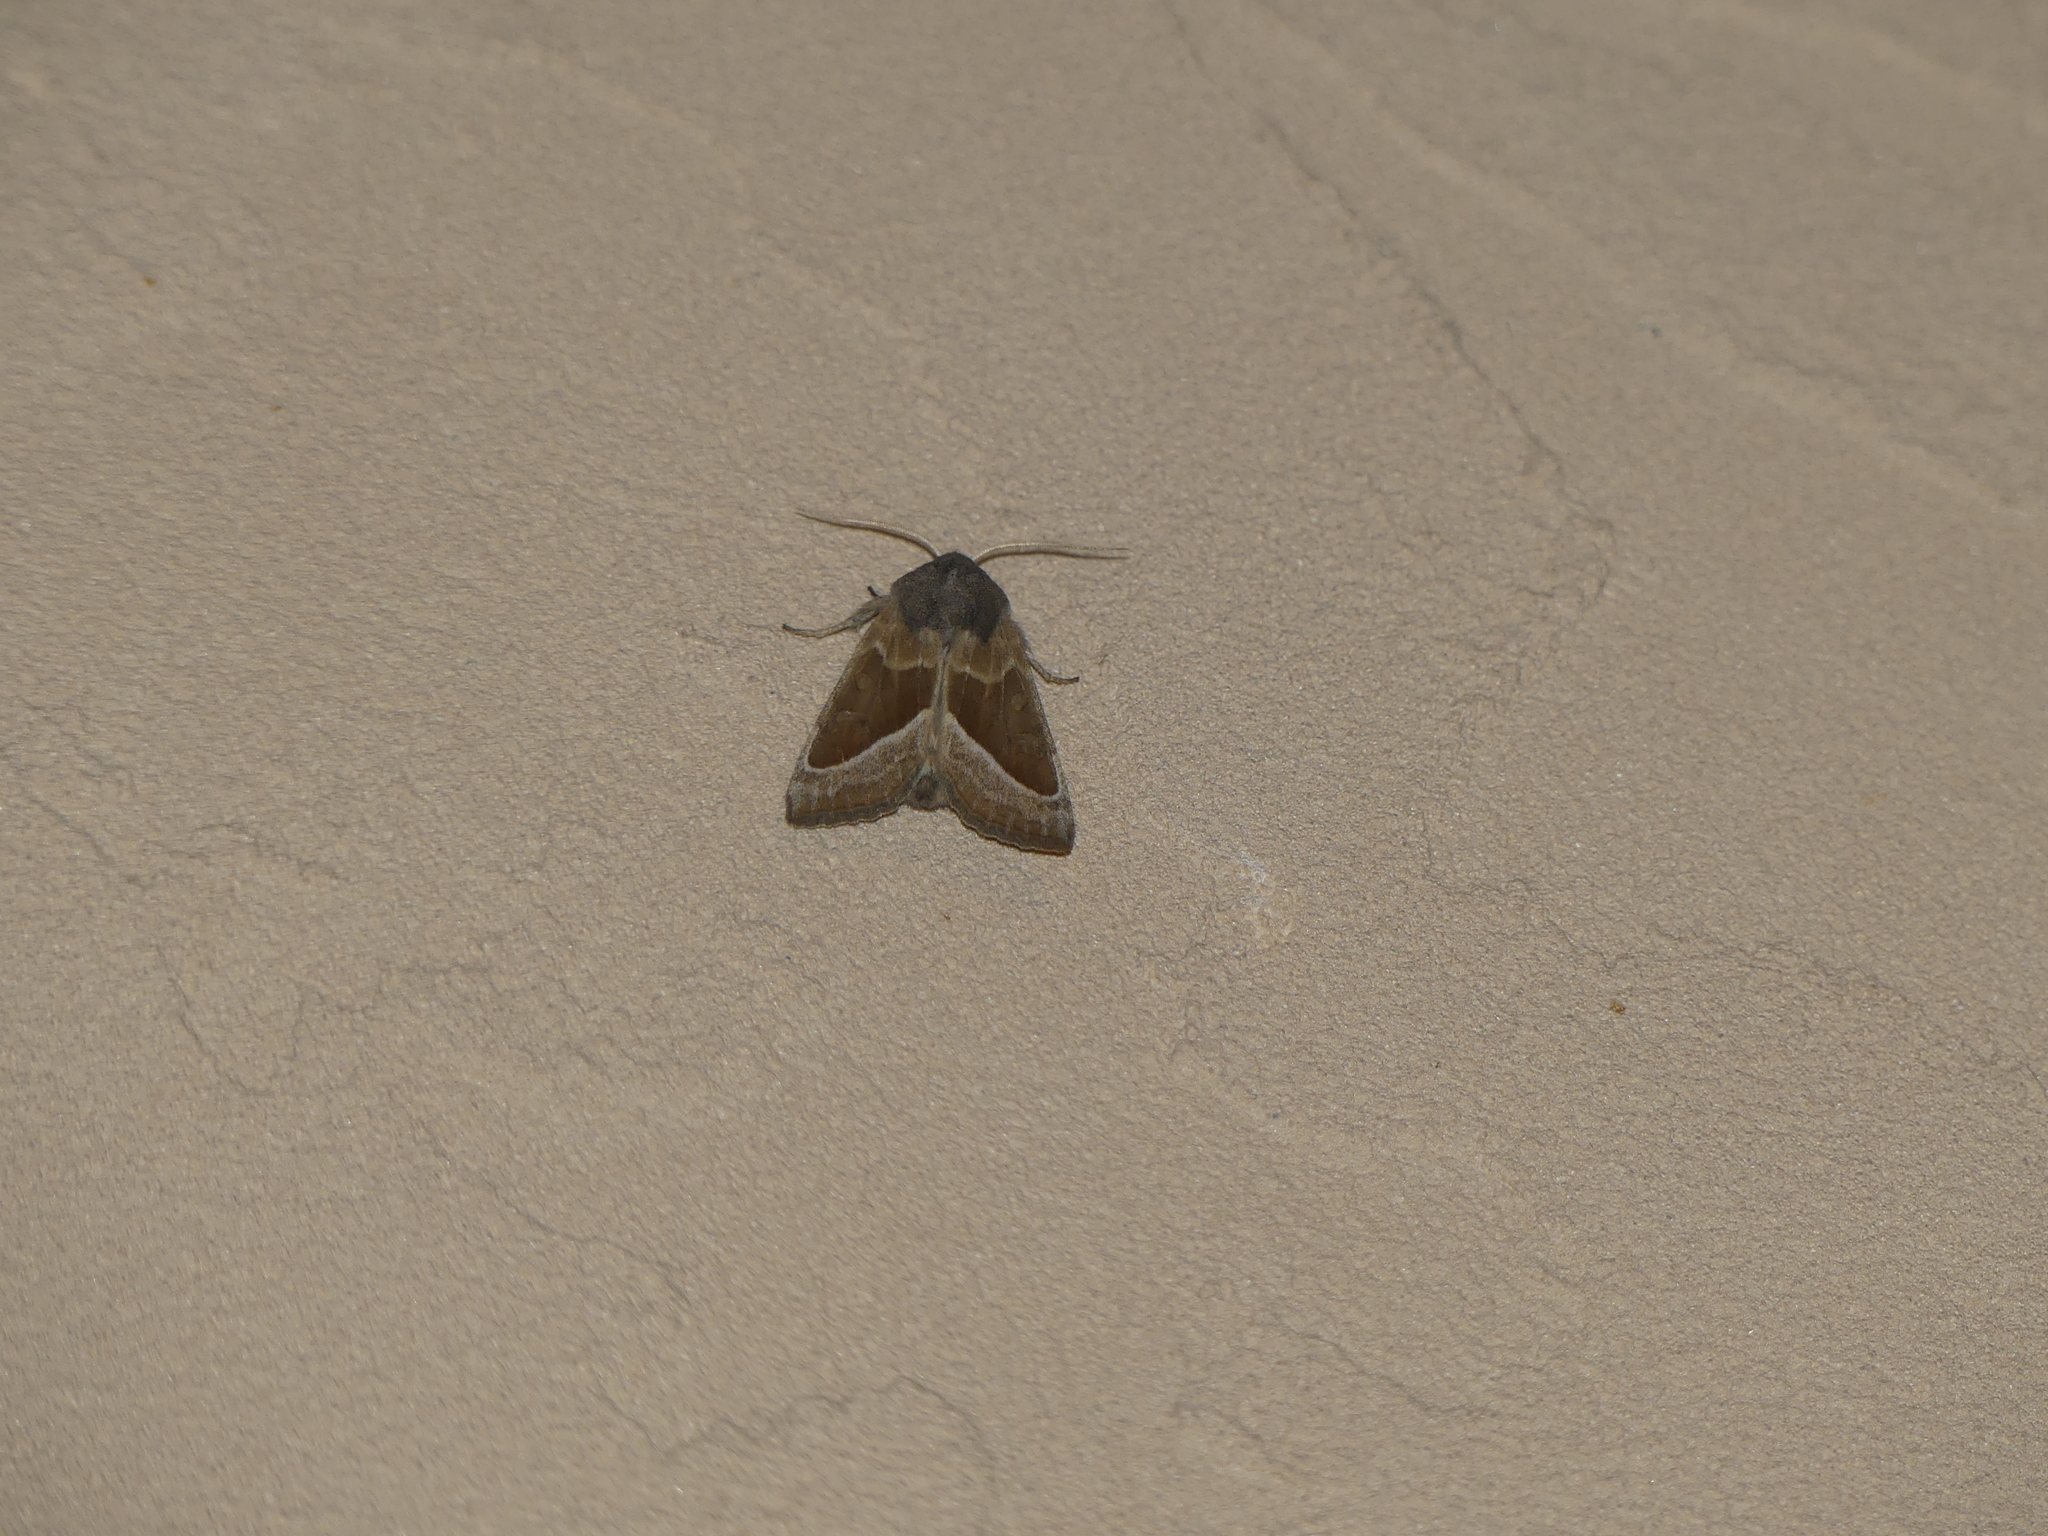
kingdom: Animalia
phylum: Arthropoda
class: Insecta
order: Lepidoptera
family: Noctuidae
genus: Hydraecia
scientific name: Hydraecia medialis
